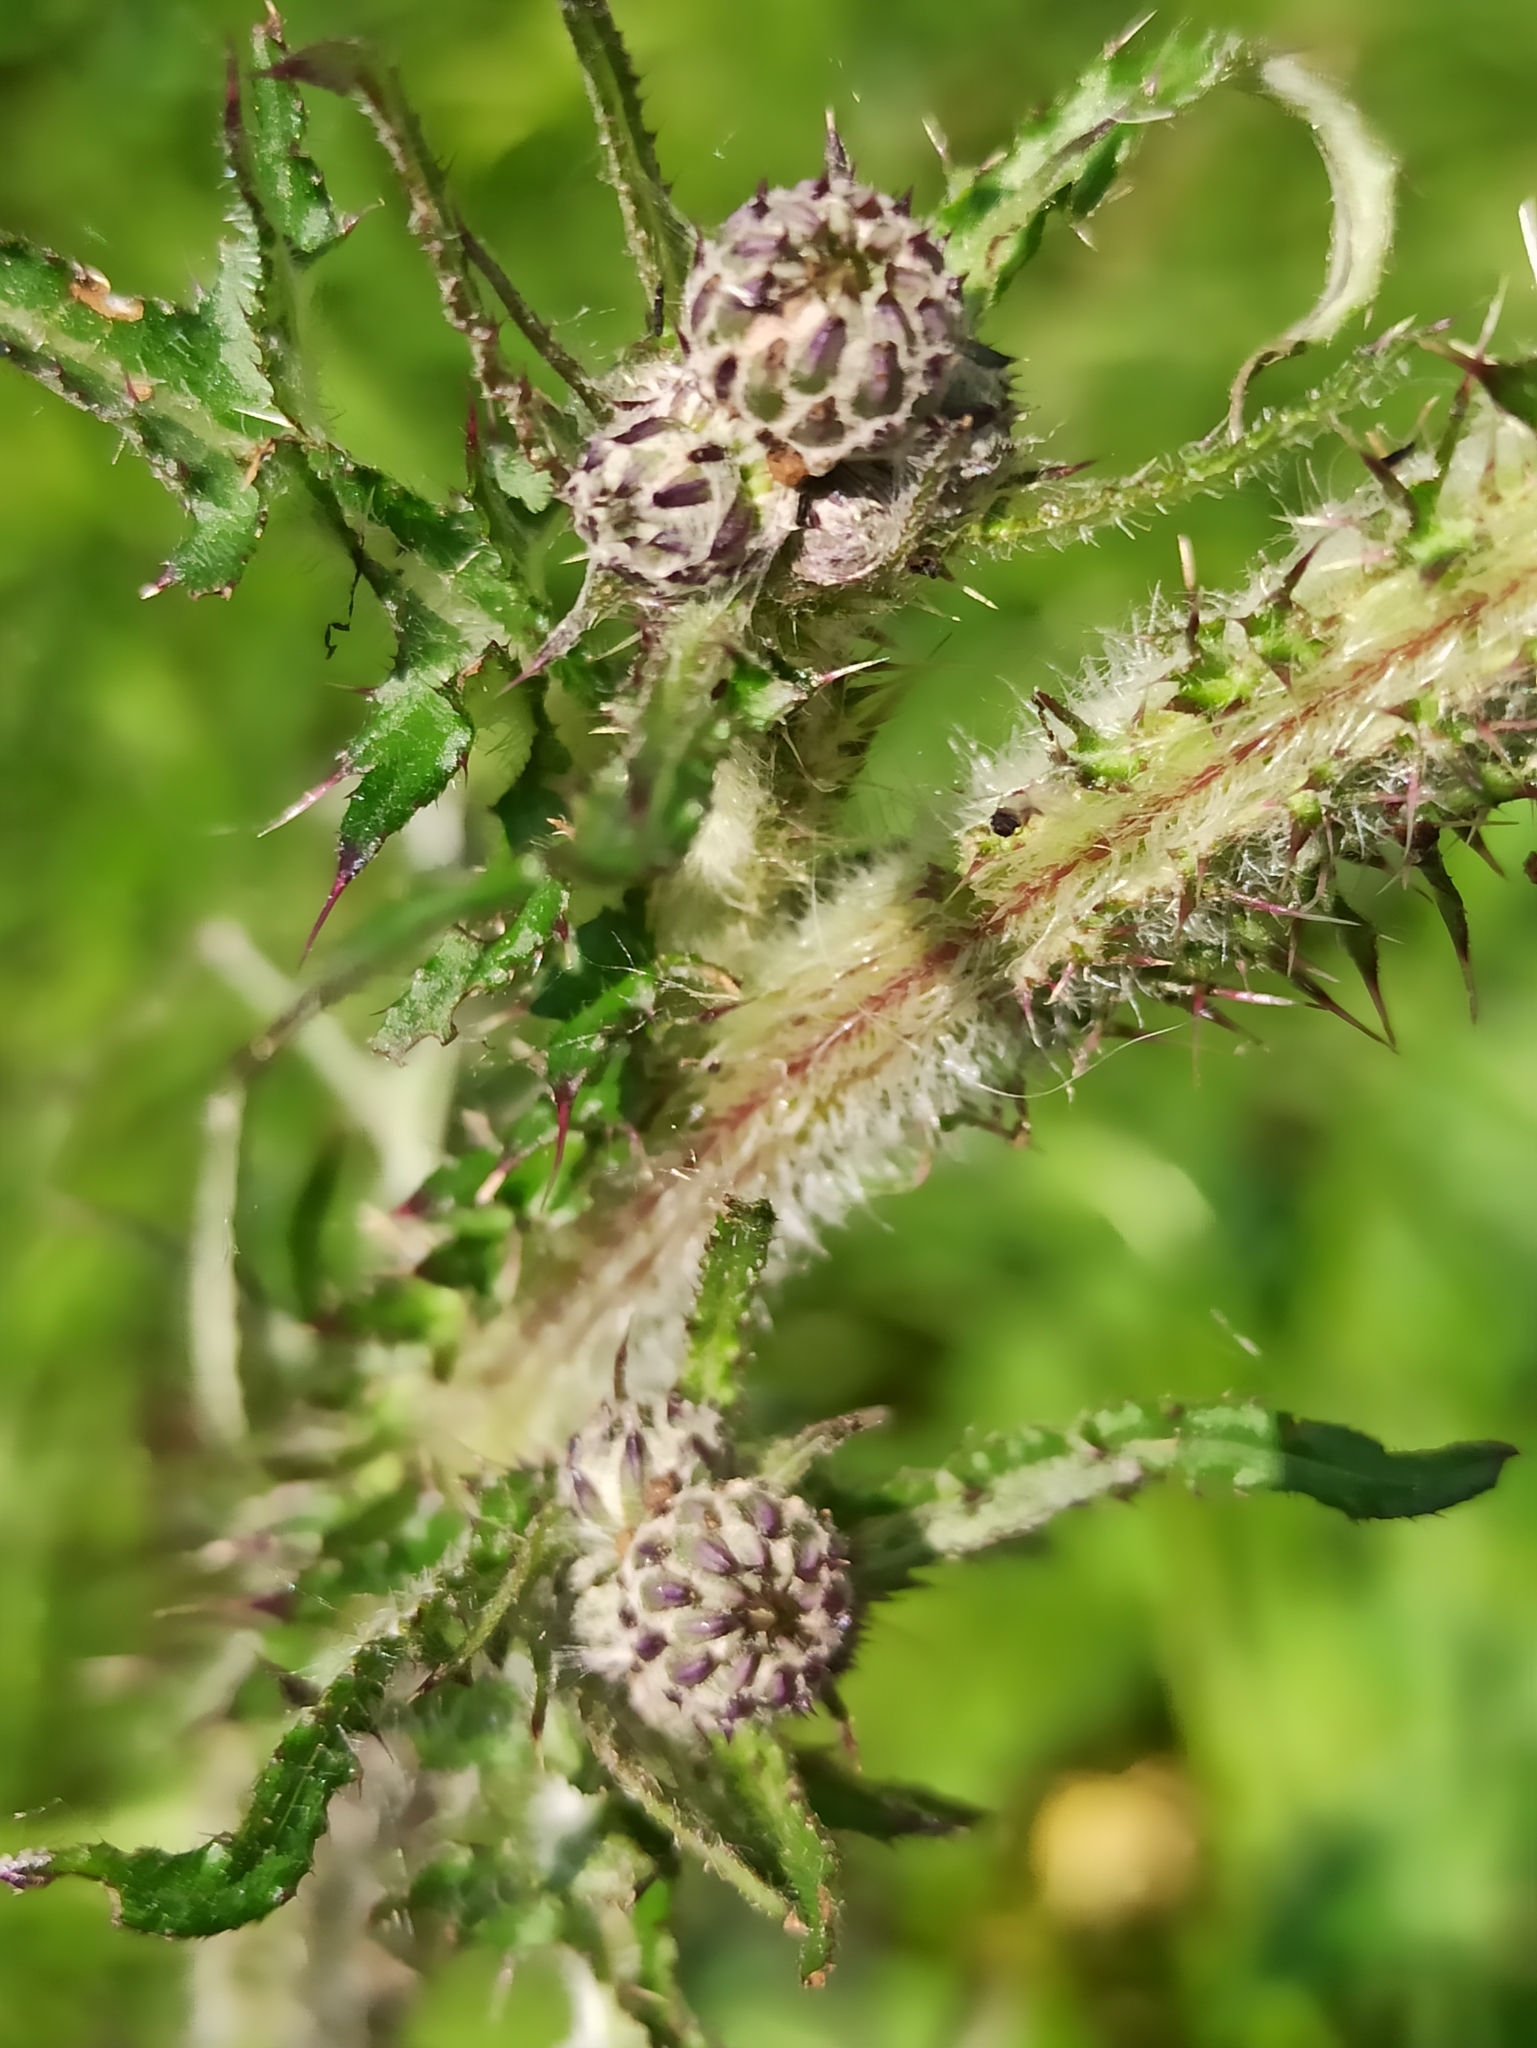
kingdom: Plantae
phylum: Tracheophyta
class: Magnoliopsida
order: Asterales
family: Asteraceae
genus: Cirsium
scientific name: Cirsium palustre
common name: Marsh thistle
